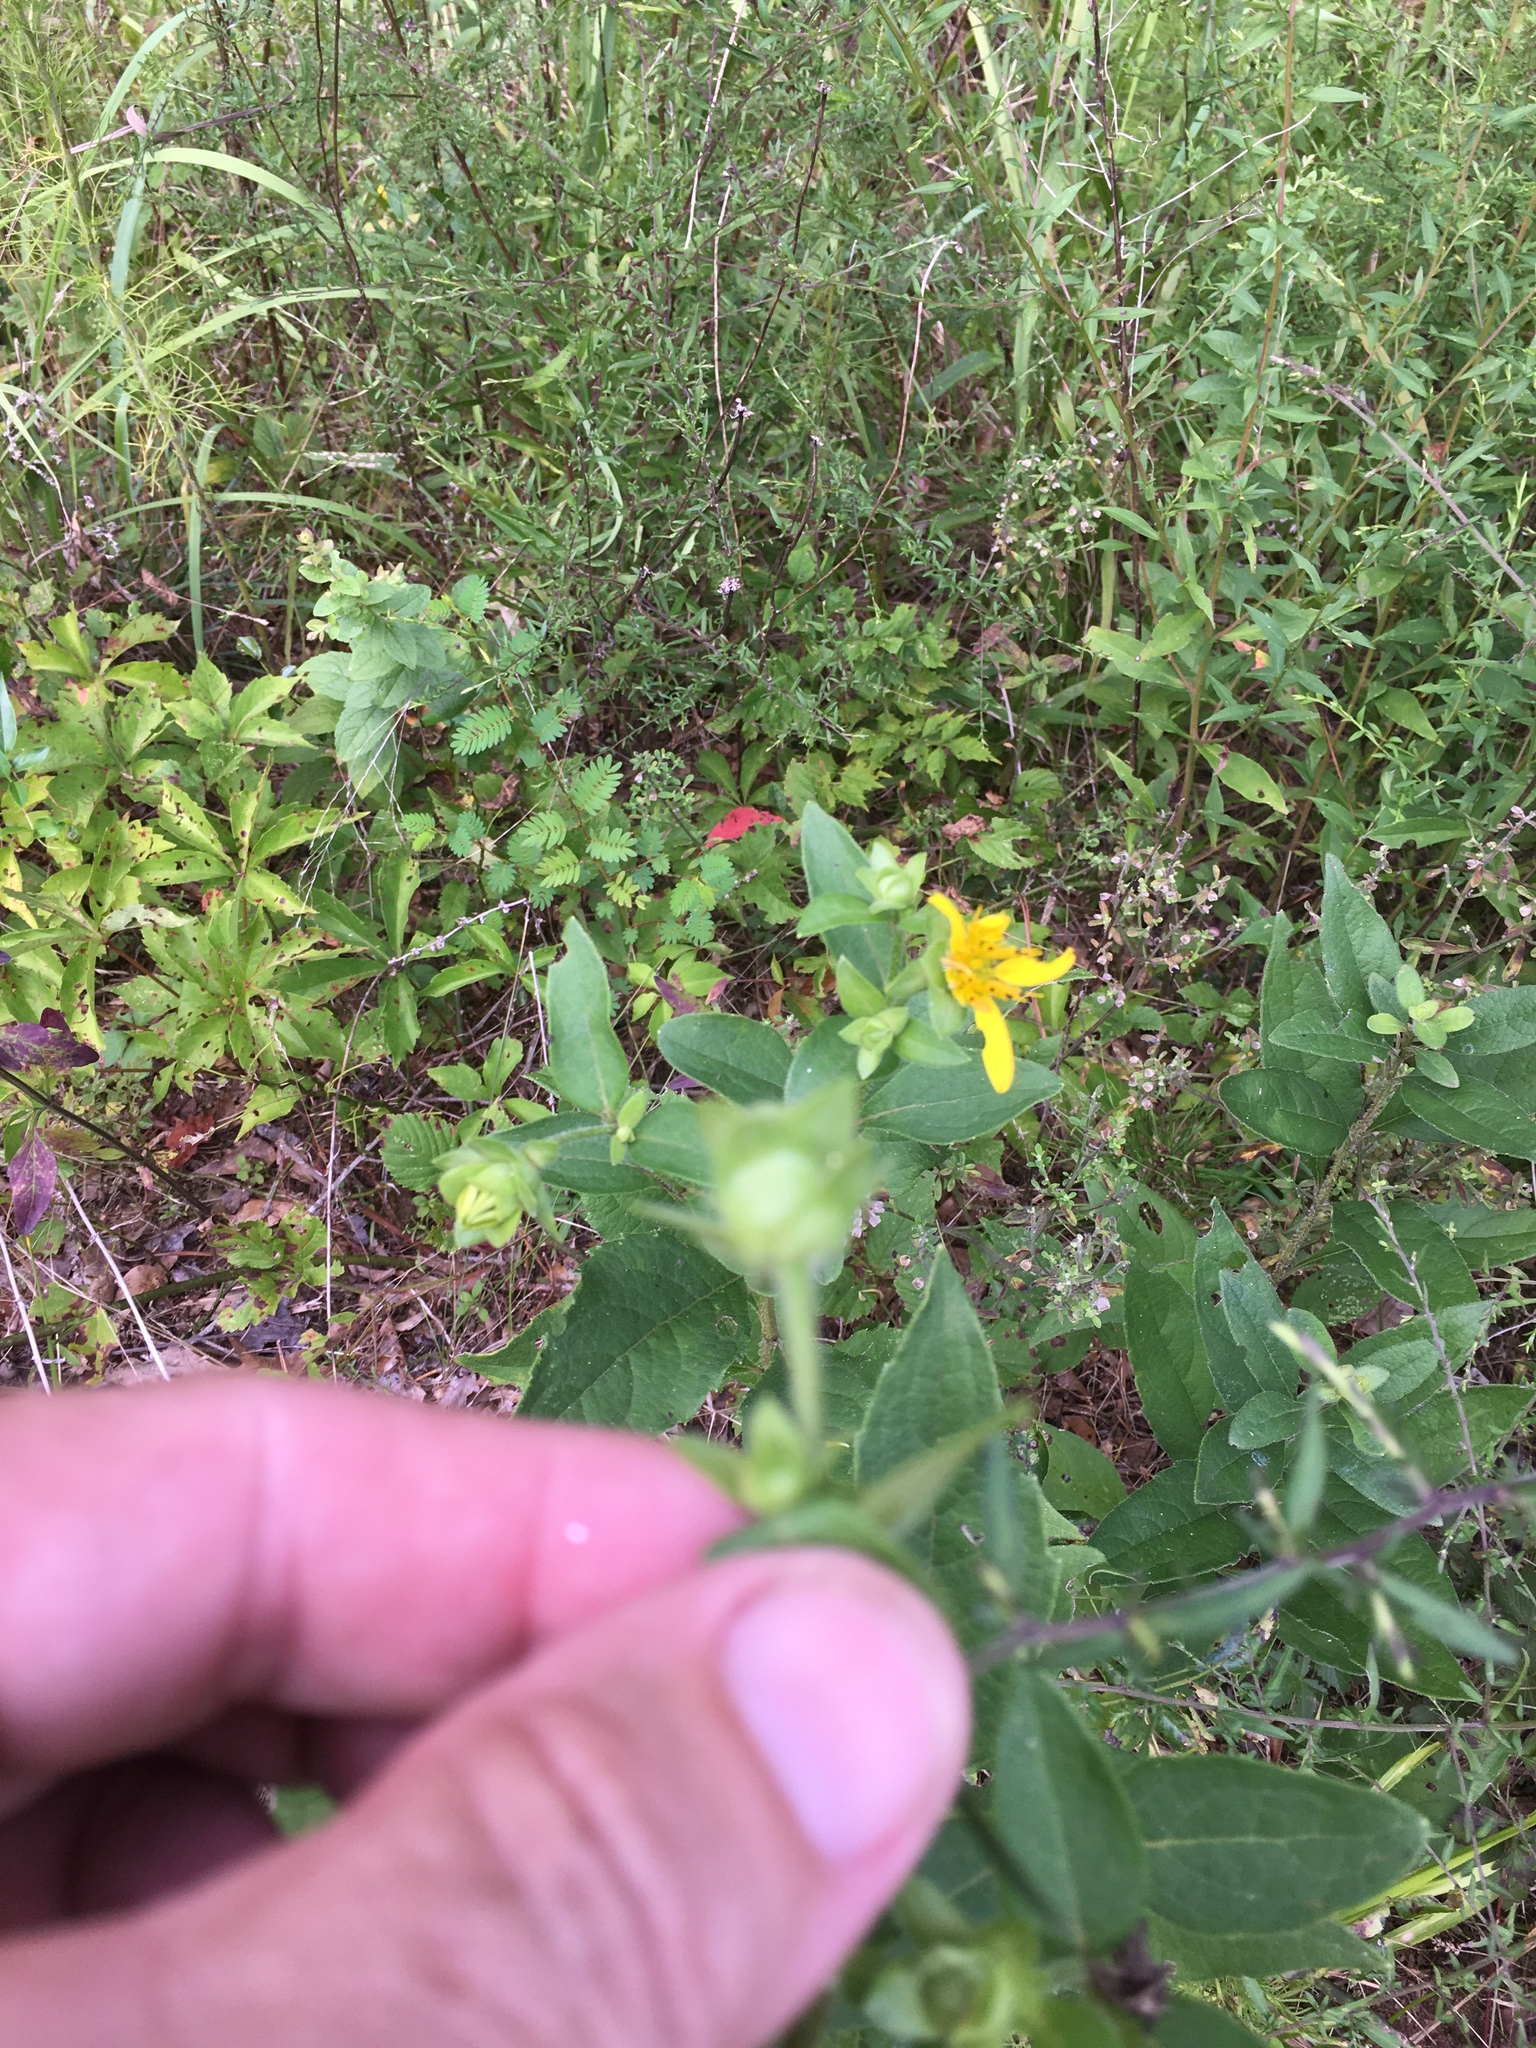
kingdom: Plantae
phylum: Tracheophyta
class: Magnoliopsida
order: Asterales
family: Asteraceae
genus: Silphium
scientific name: Silphium asteriscus
